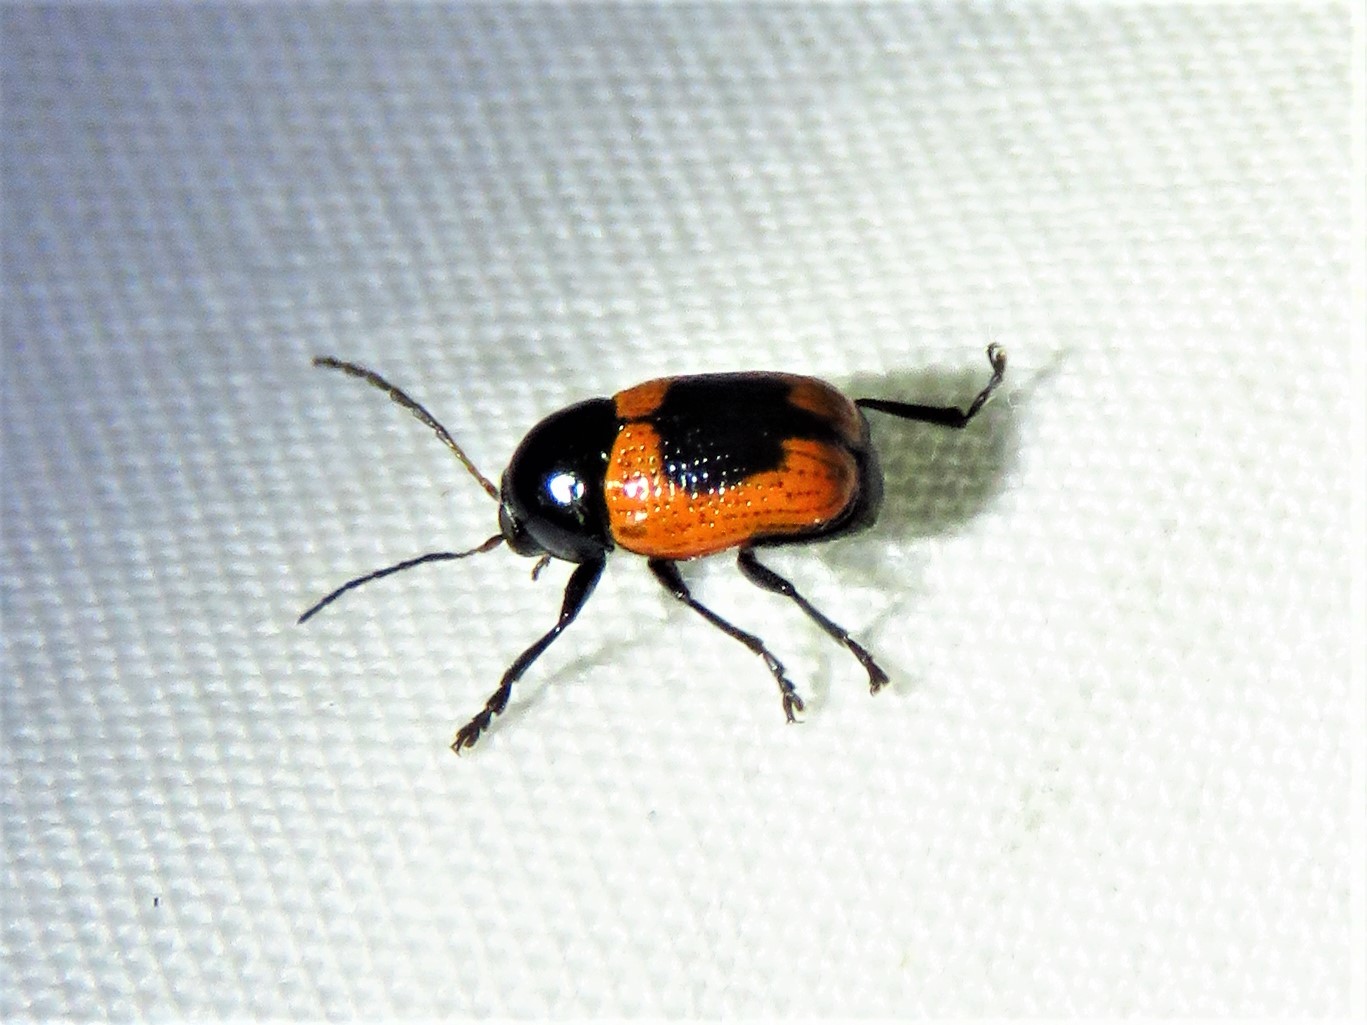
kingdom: Animalia
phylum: Arthropoda
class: Insecta
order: Coleoptera
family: Chrysomelidae
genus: Cryptocephalus
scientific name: Cryptocephalus notatus
